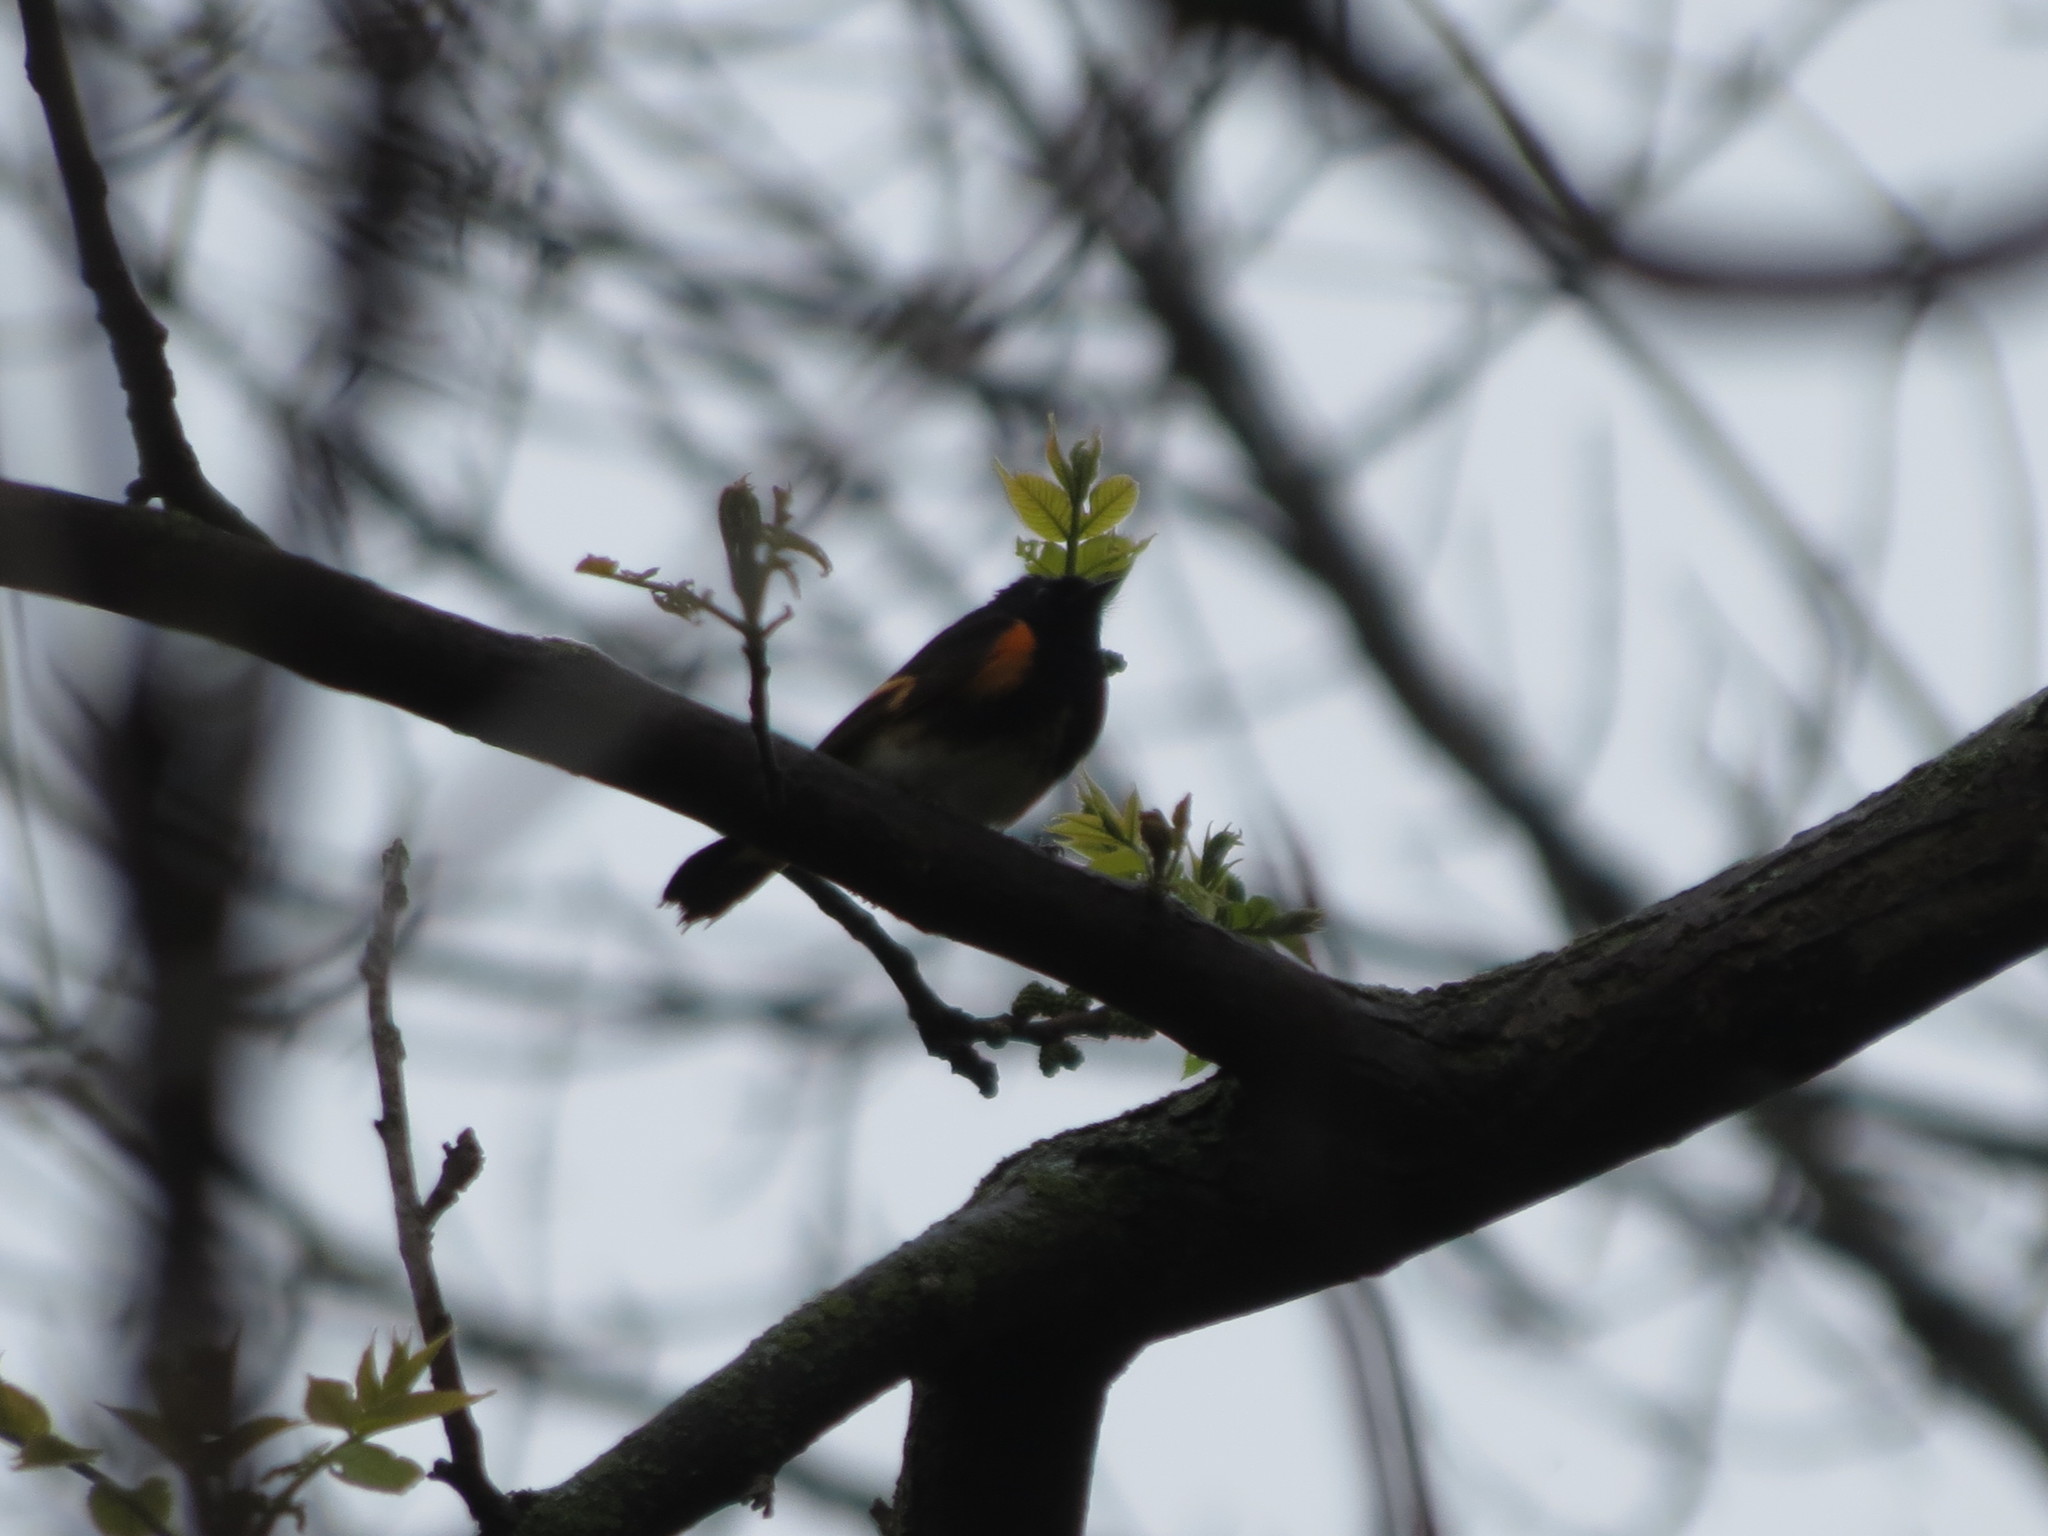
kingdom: Animalia
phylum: Chordata
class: Aves
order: Passeriformes
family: Parulidae
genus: Setophaga
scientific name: Setophaga ruticilla
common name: American redstart
